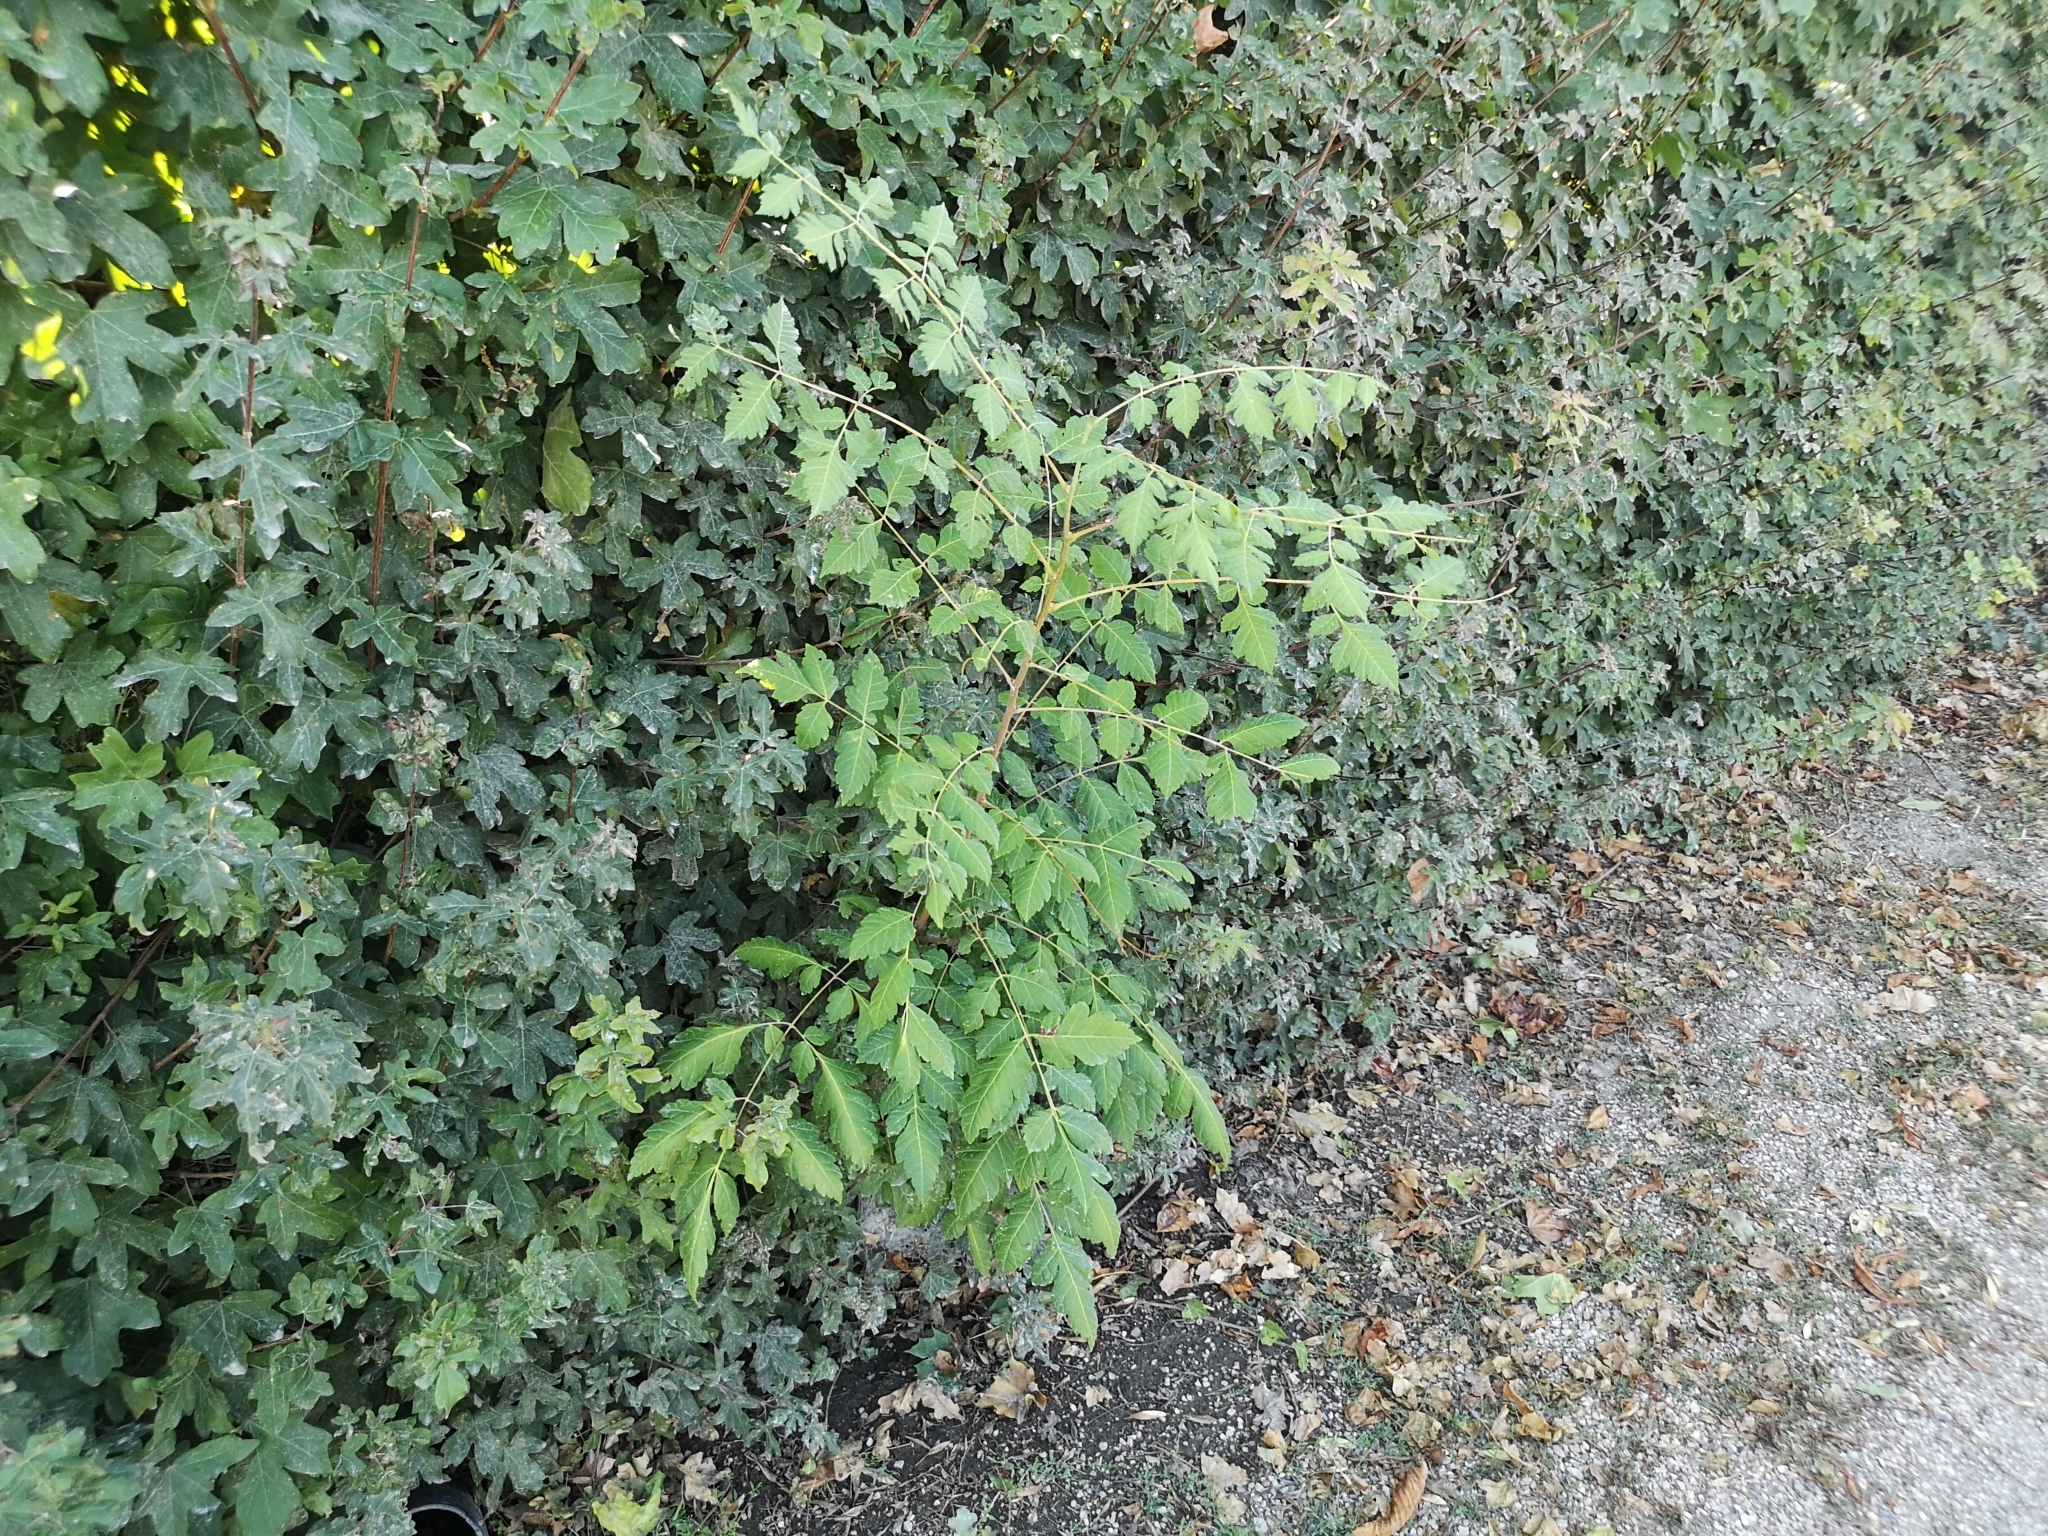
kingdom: Plantae
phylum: Tracheophyta
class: Magnoliopsida
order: Sapindales
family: Sapindaceae
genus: Koelreuteria
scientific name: Koelreuteria paniculata
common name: Pride-of-india
